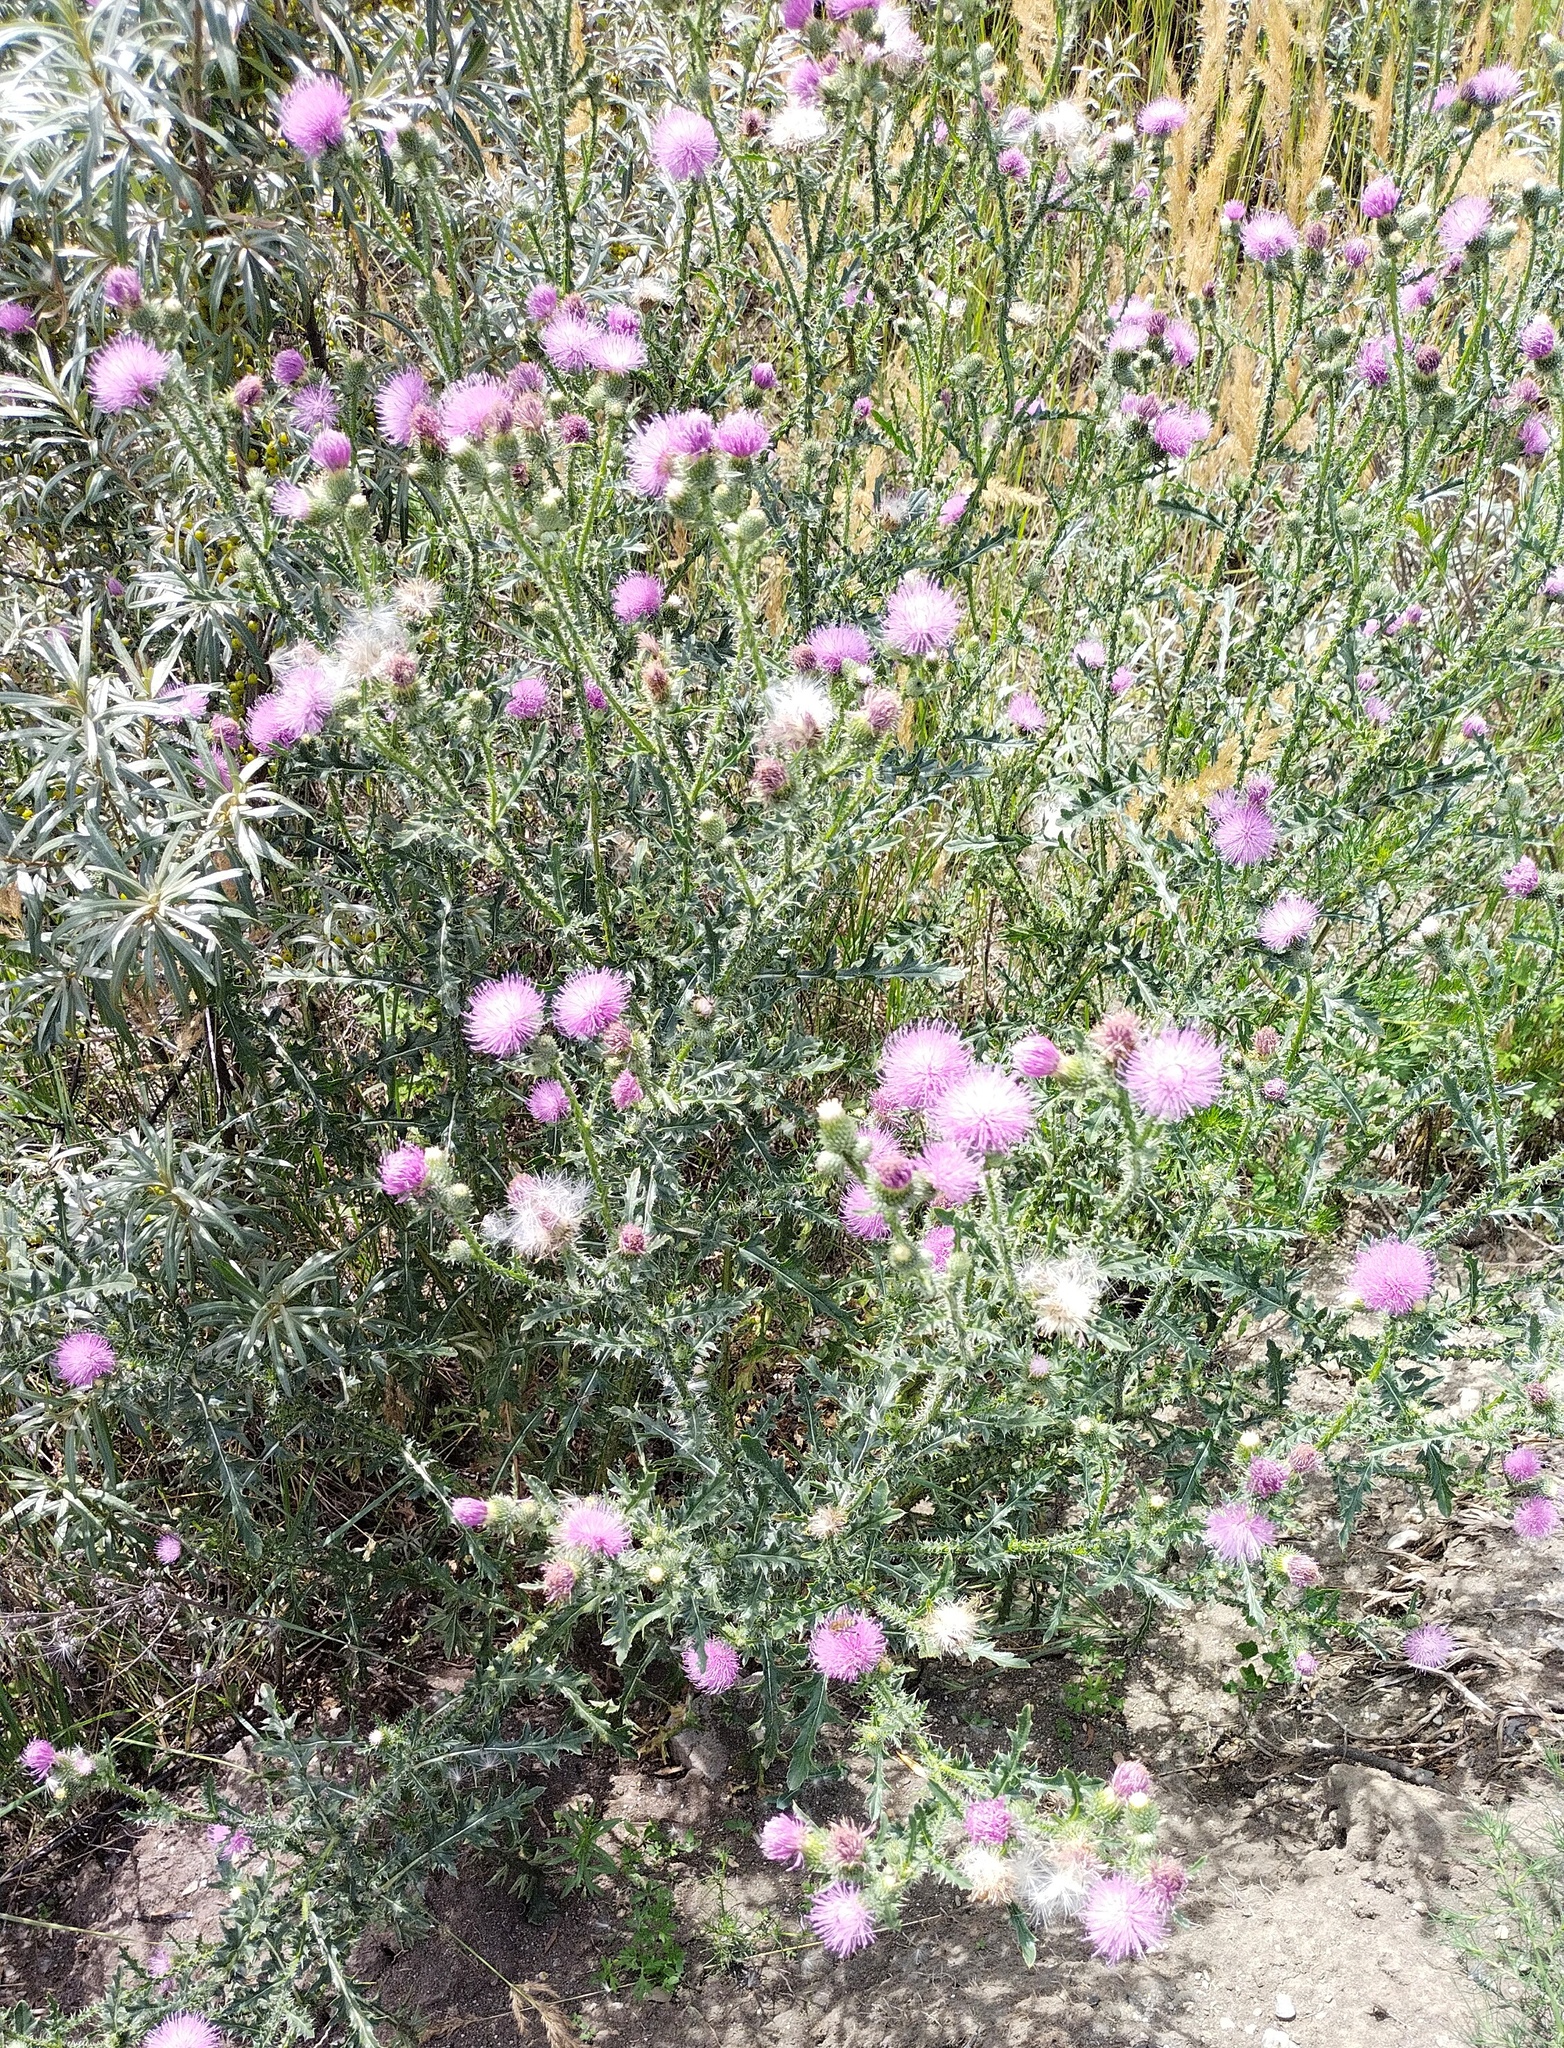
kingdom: Plantae
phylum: Tracheophyta
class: Magnoliopsida
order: Asterales
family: Asteraceae
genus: Carduus
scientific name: Carduus acanthoides
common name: Plumeless thistle
